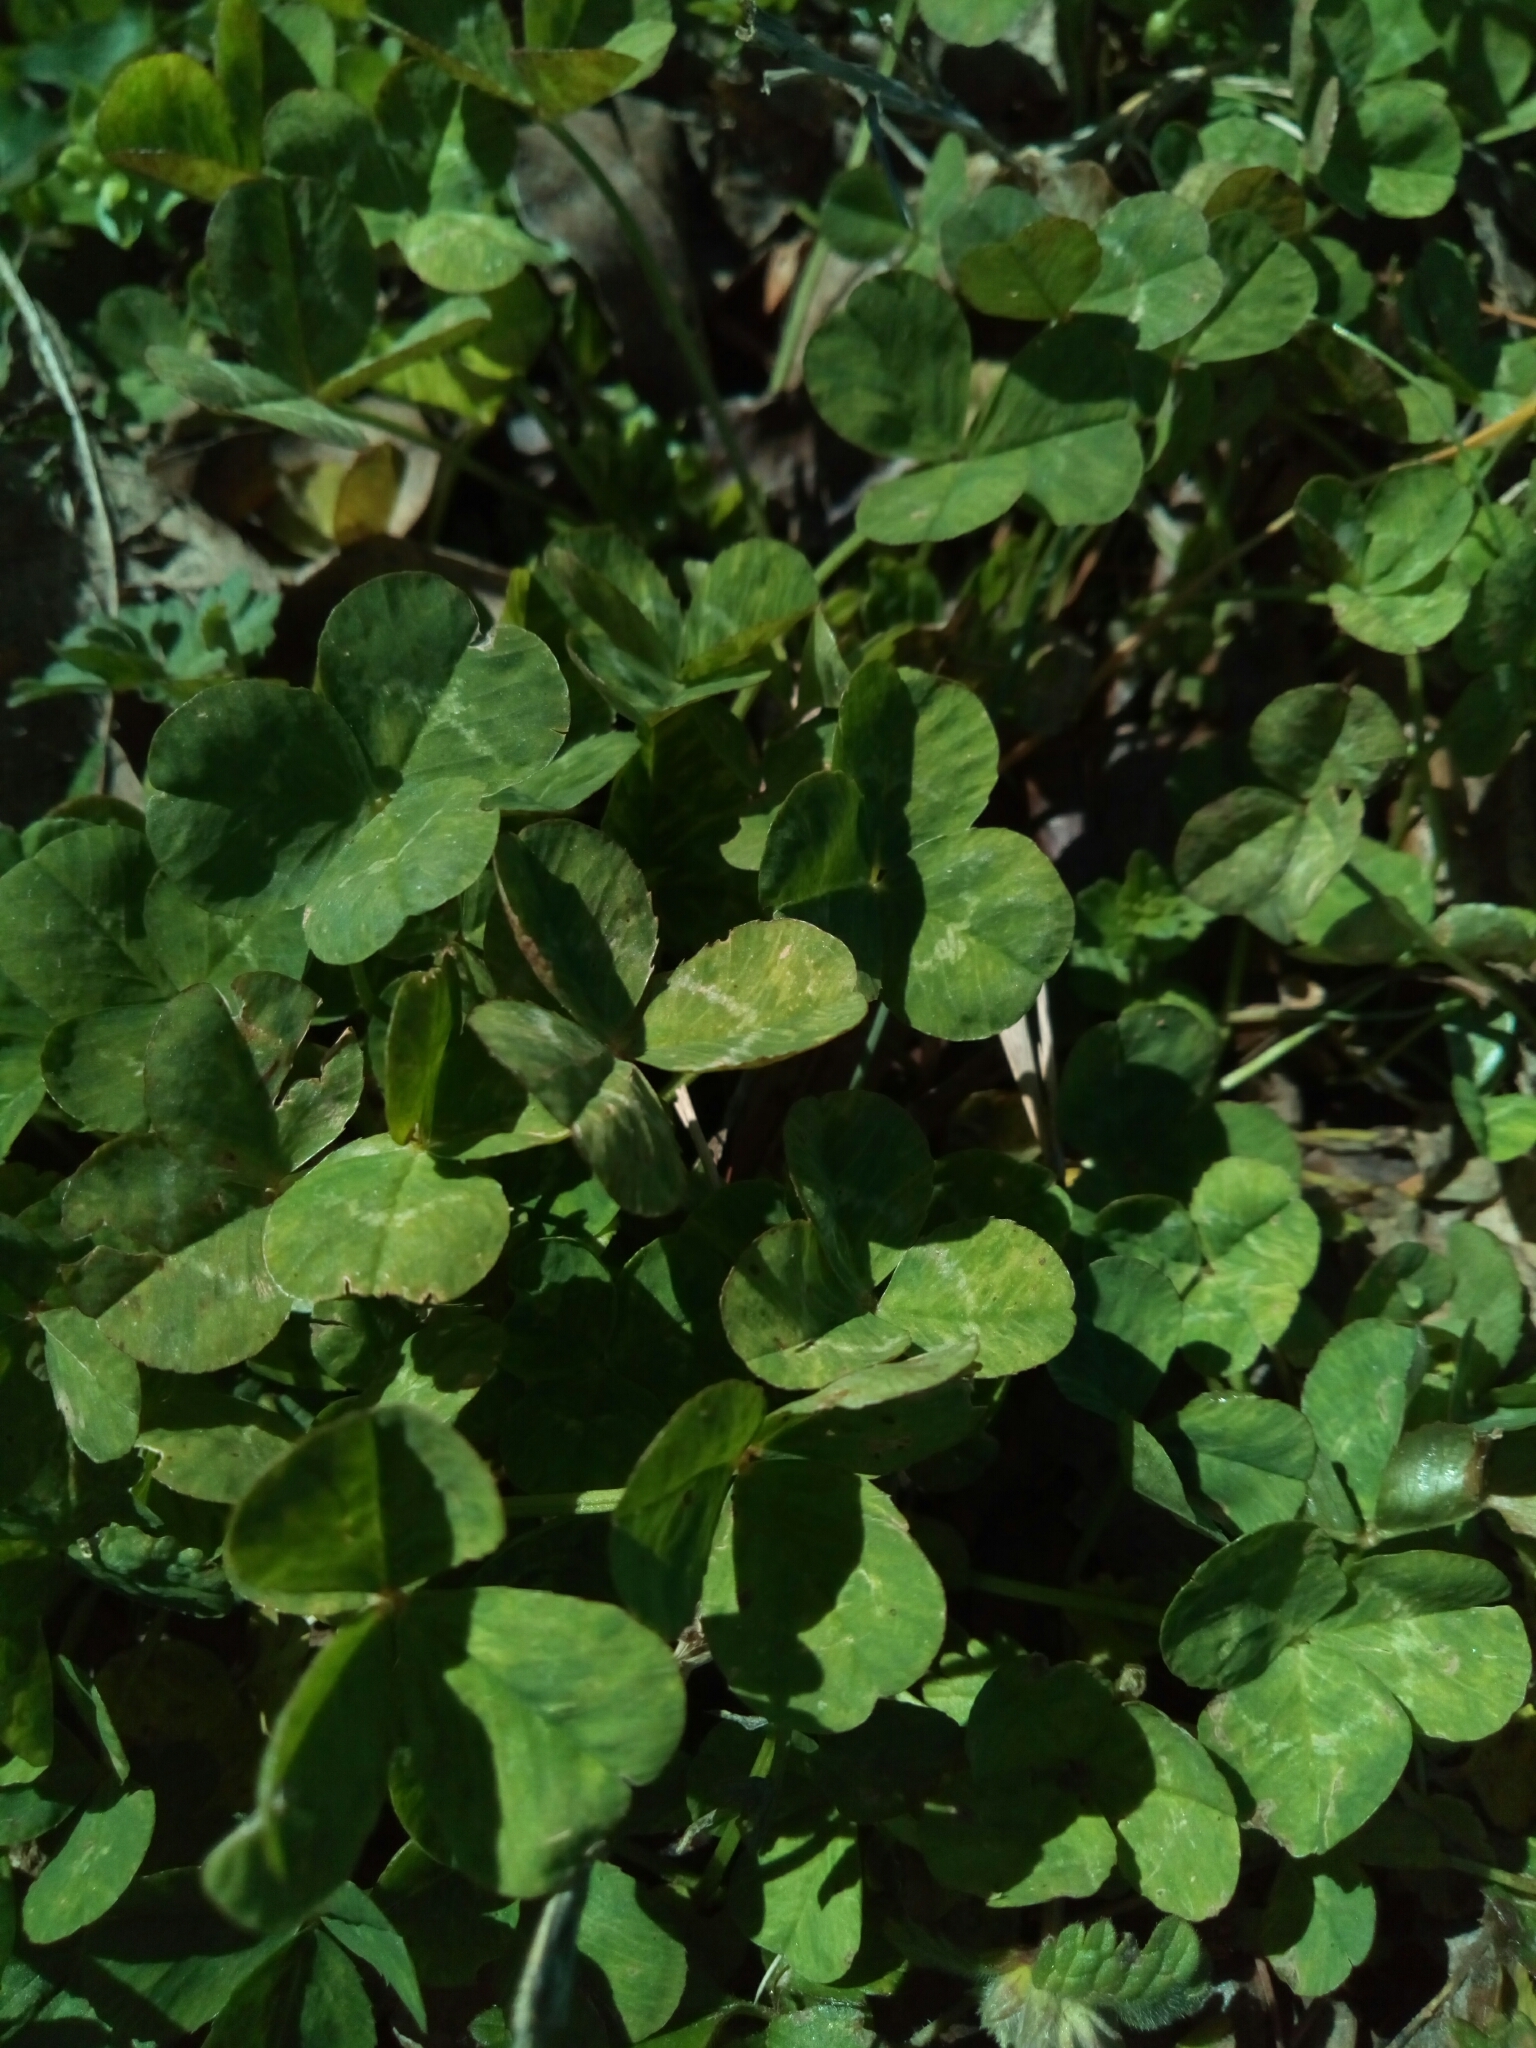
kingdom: Plantae
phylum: Tracheophyta
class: Magnoliopsida
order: Fabales
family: Fabaceae
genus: Trifolium
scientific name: Trifolium repens
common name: White clover
